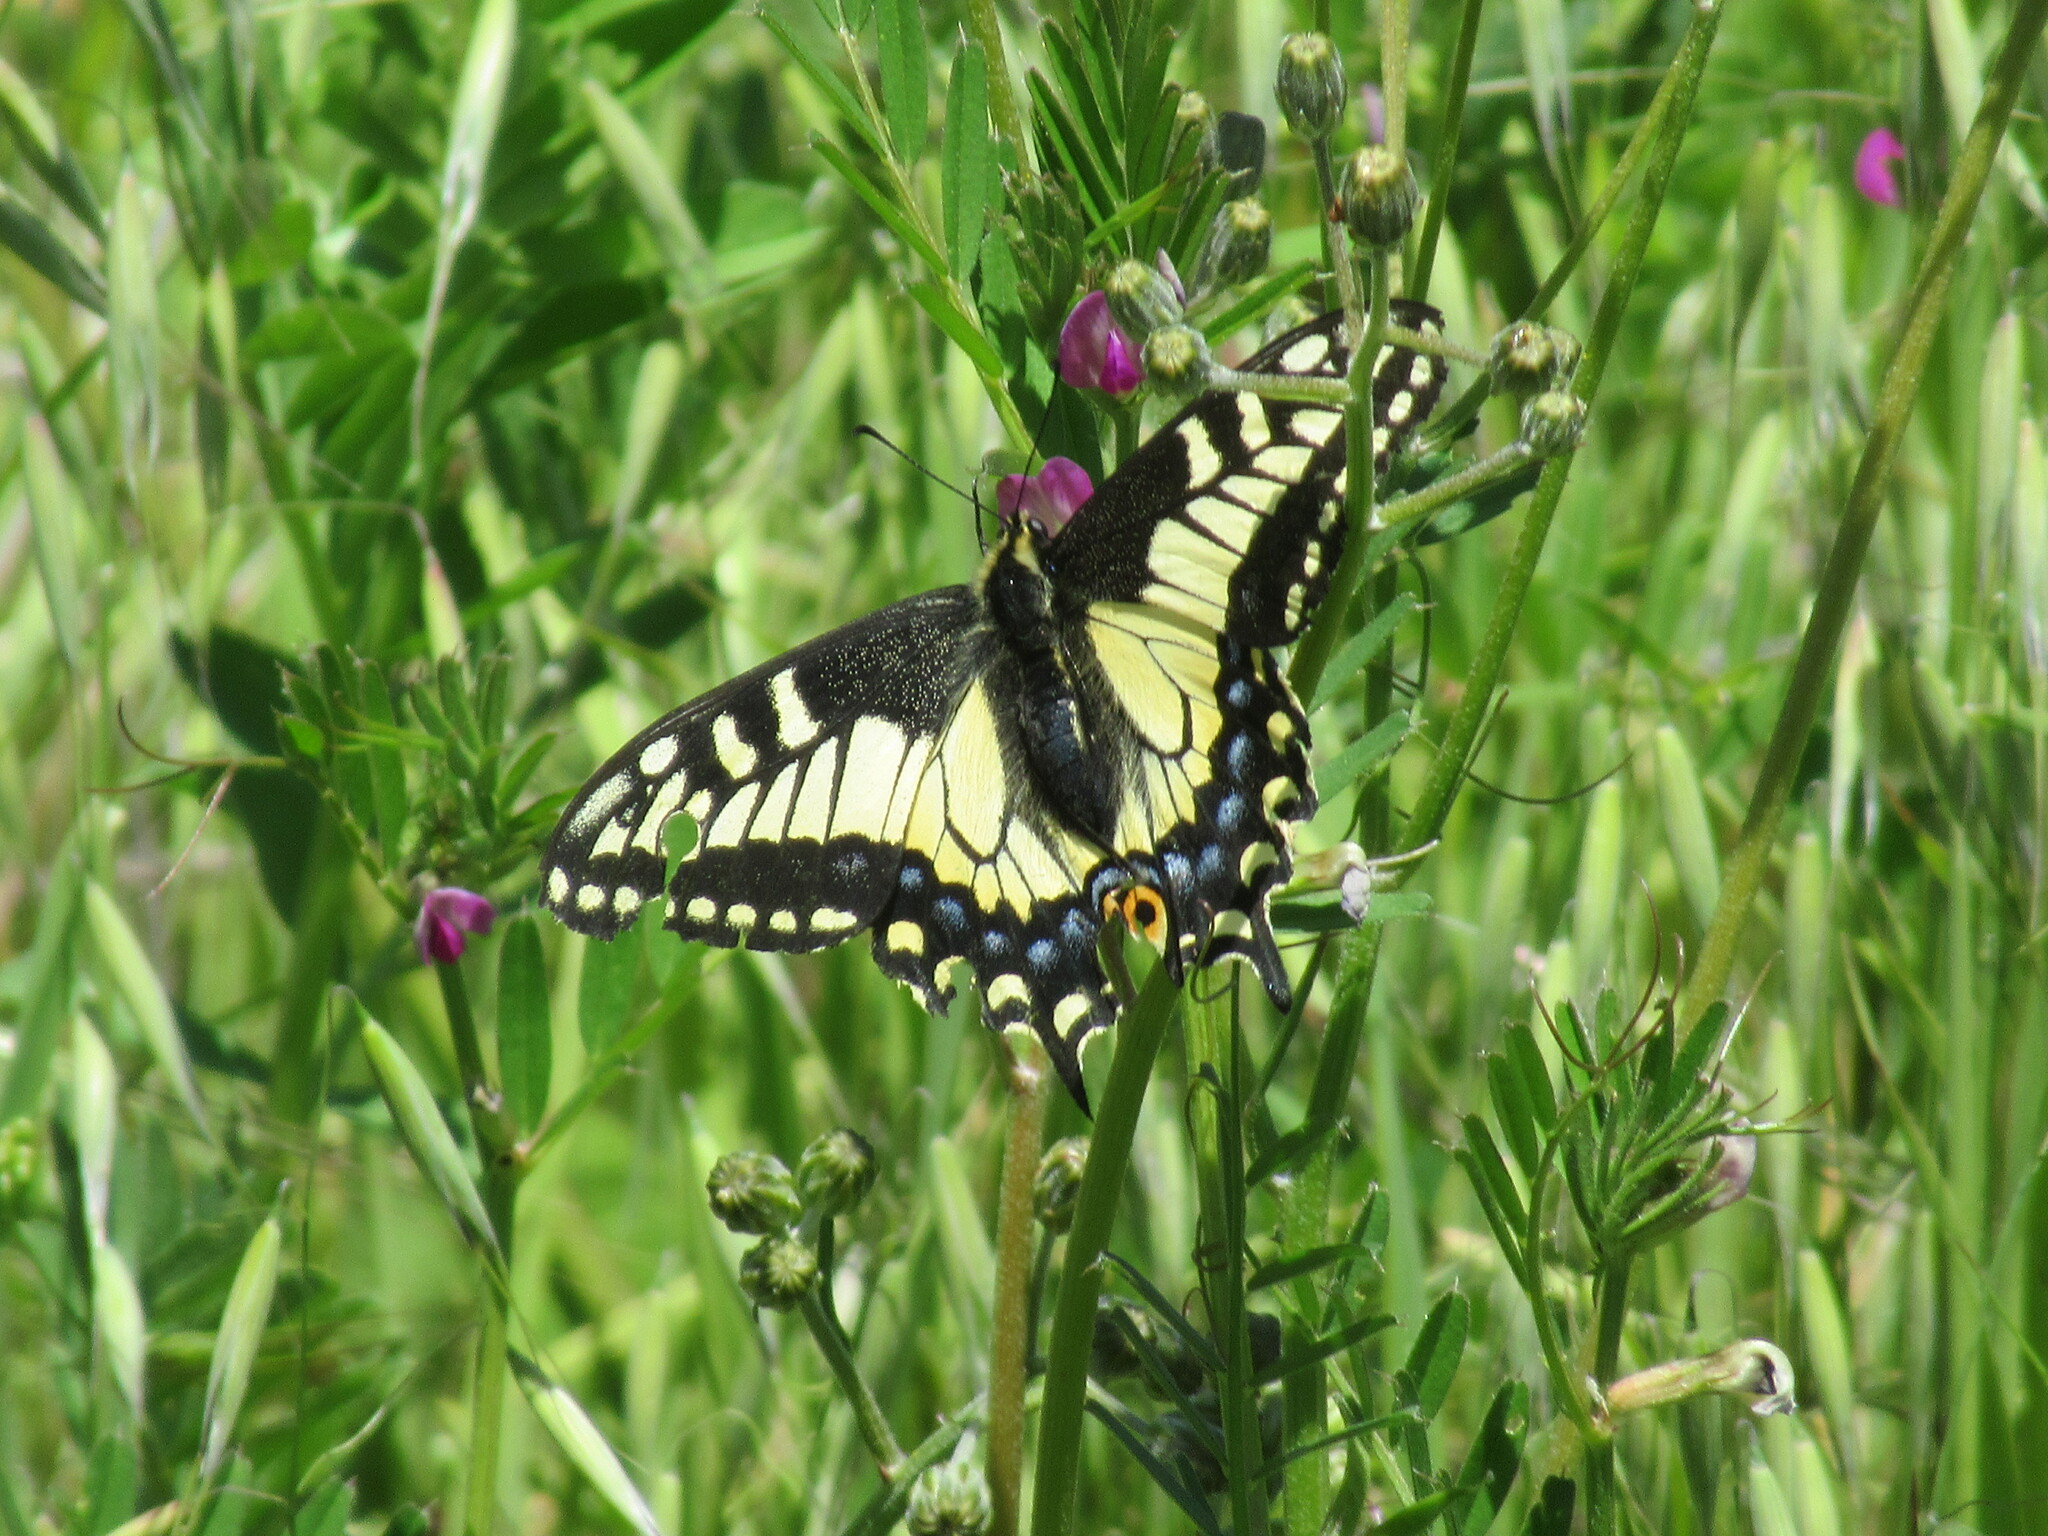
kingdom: Animalia
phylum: Arthropoda
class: Insecta
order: Lepidoptera
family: Papilionidae
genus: Papilio
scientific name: Papilio zelicaon
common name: Anise swallowtail
